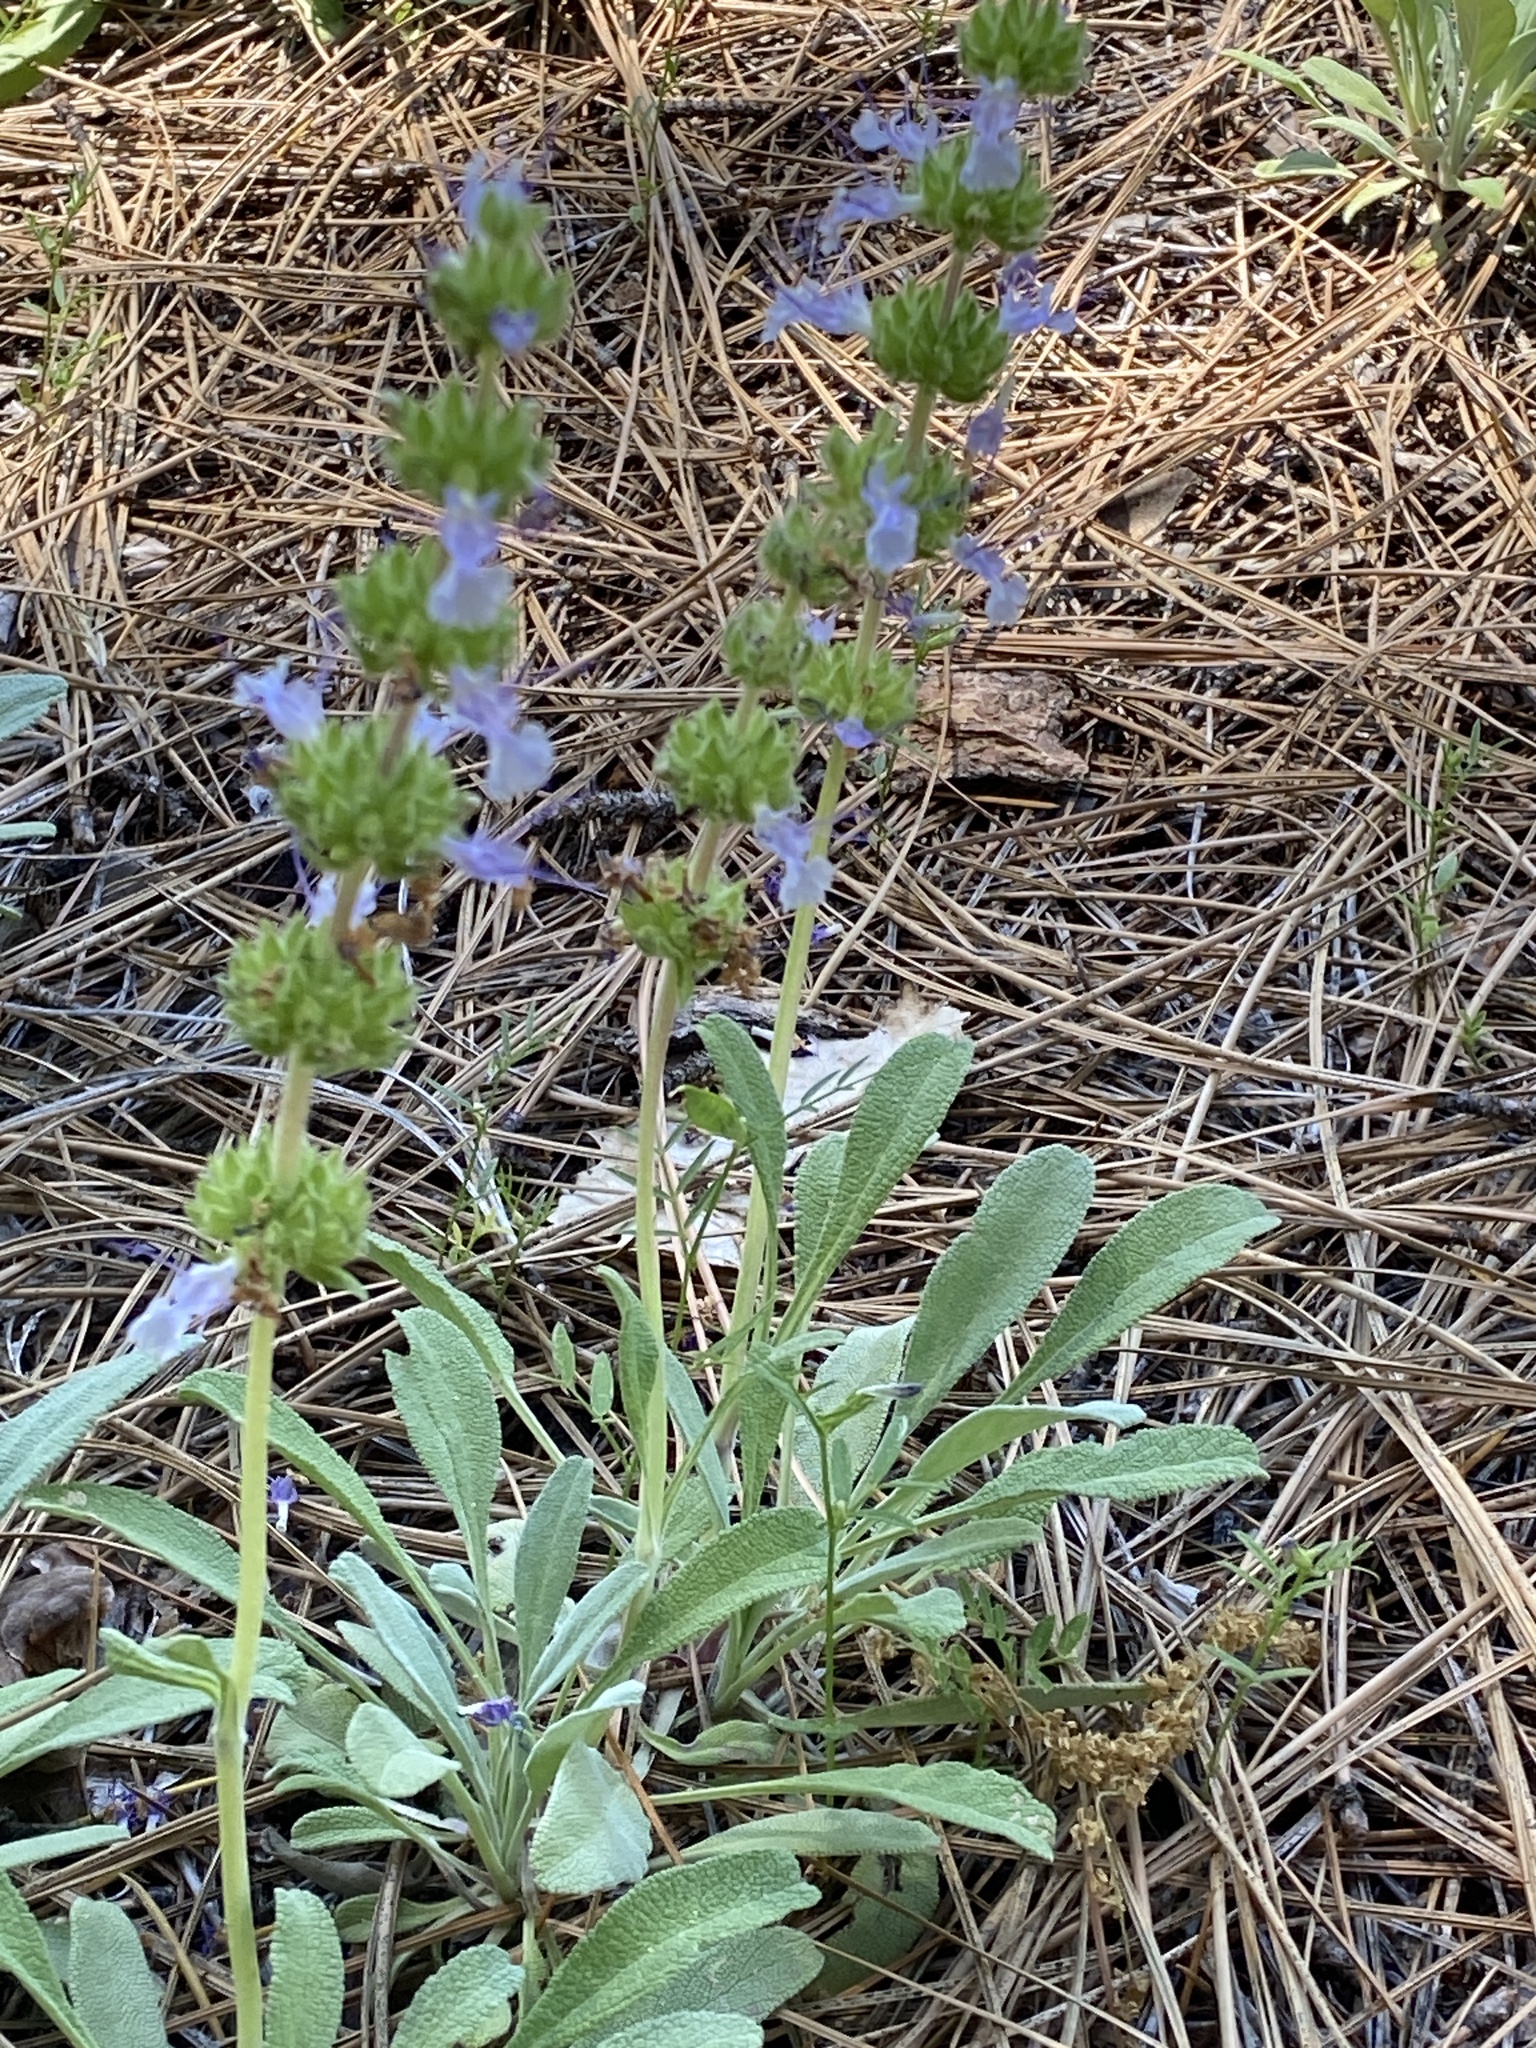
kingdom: Plantae
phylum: Tracheophyta
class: Magnoliopsida
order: Lamiales
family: Lamiaceae
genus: Salvia
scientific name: Salvia sonomensis
